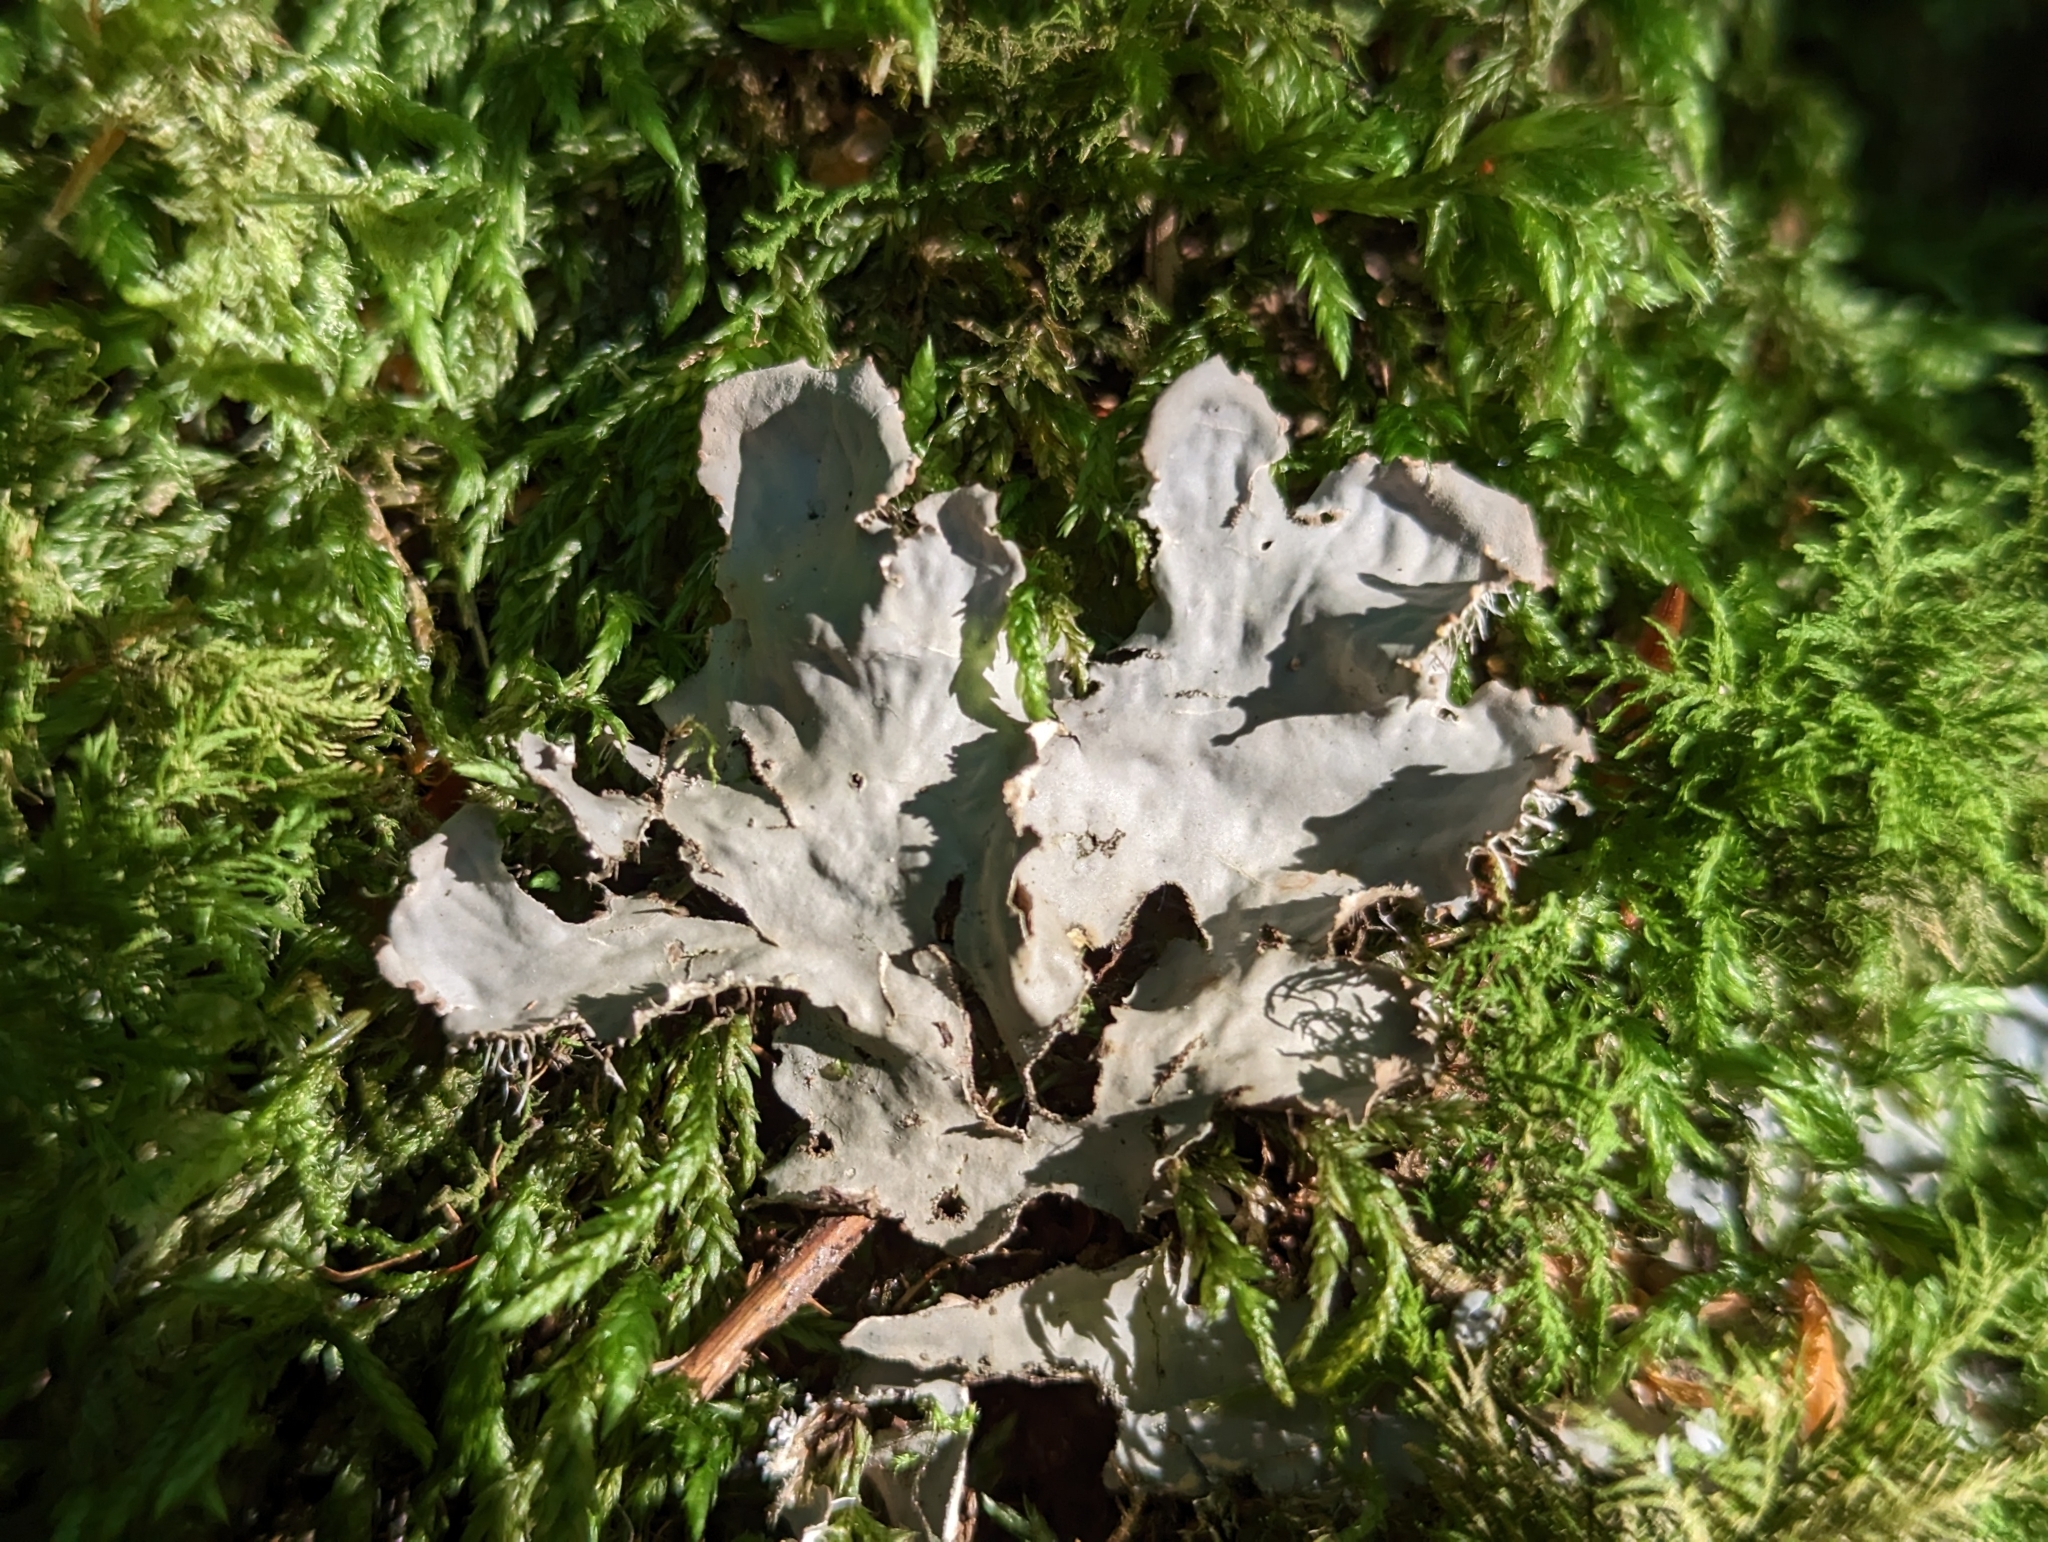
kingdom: Fungi
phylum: Ascomycota
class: Lecanoromycetes
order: Peltigerales
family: Peltigeraceae
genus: Peltigera
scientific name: Peltigera praetextata
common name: Scaly dog-lichen
